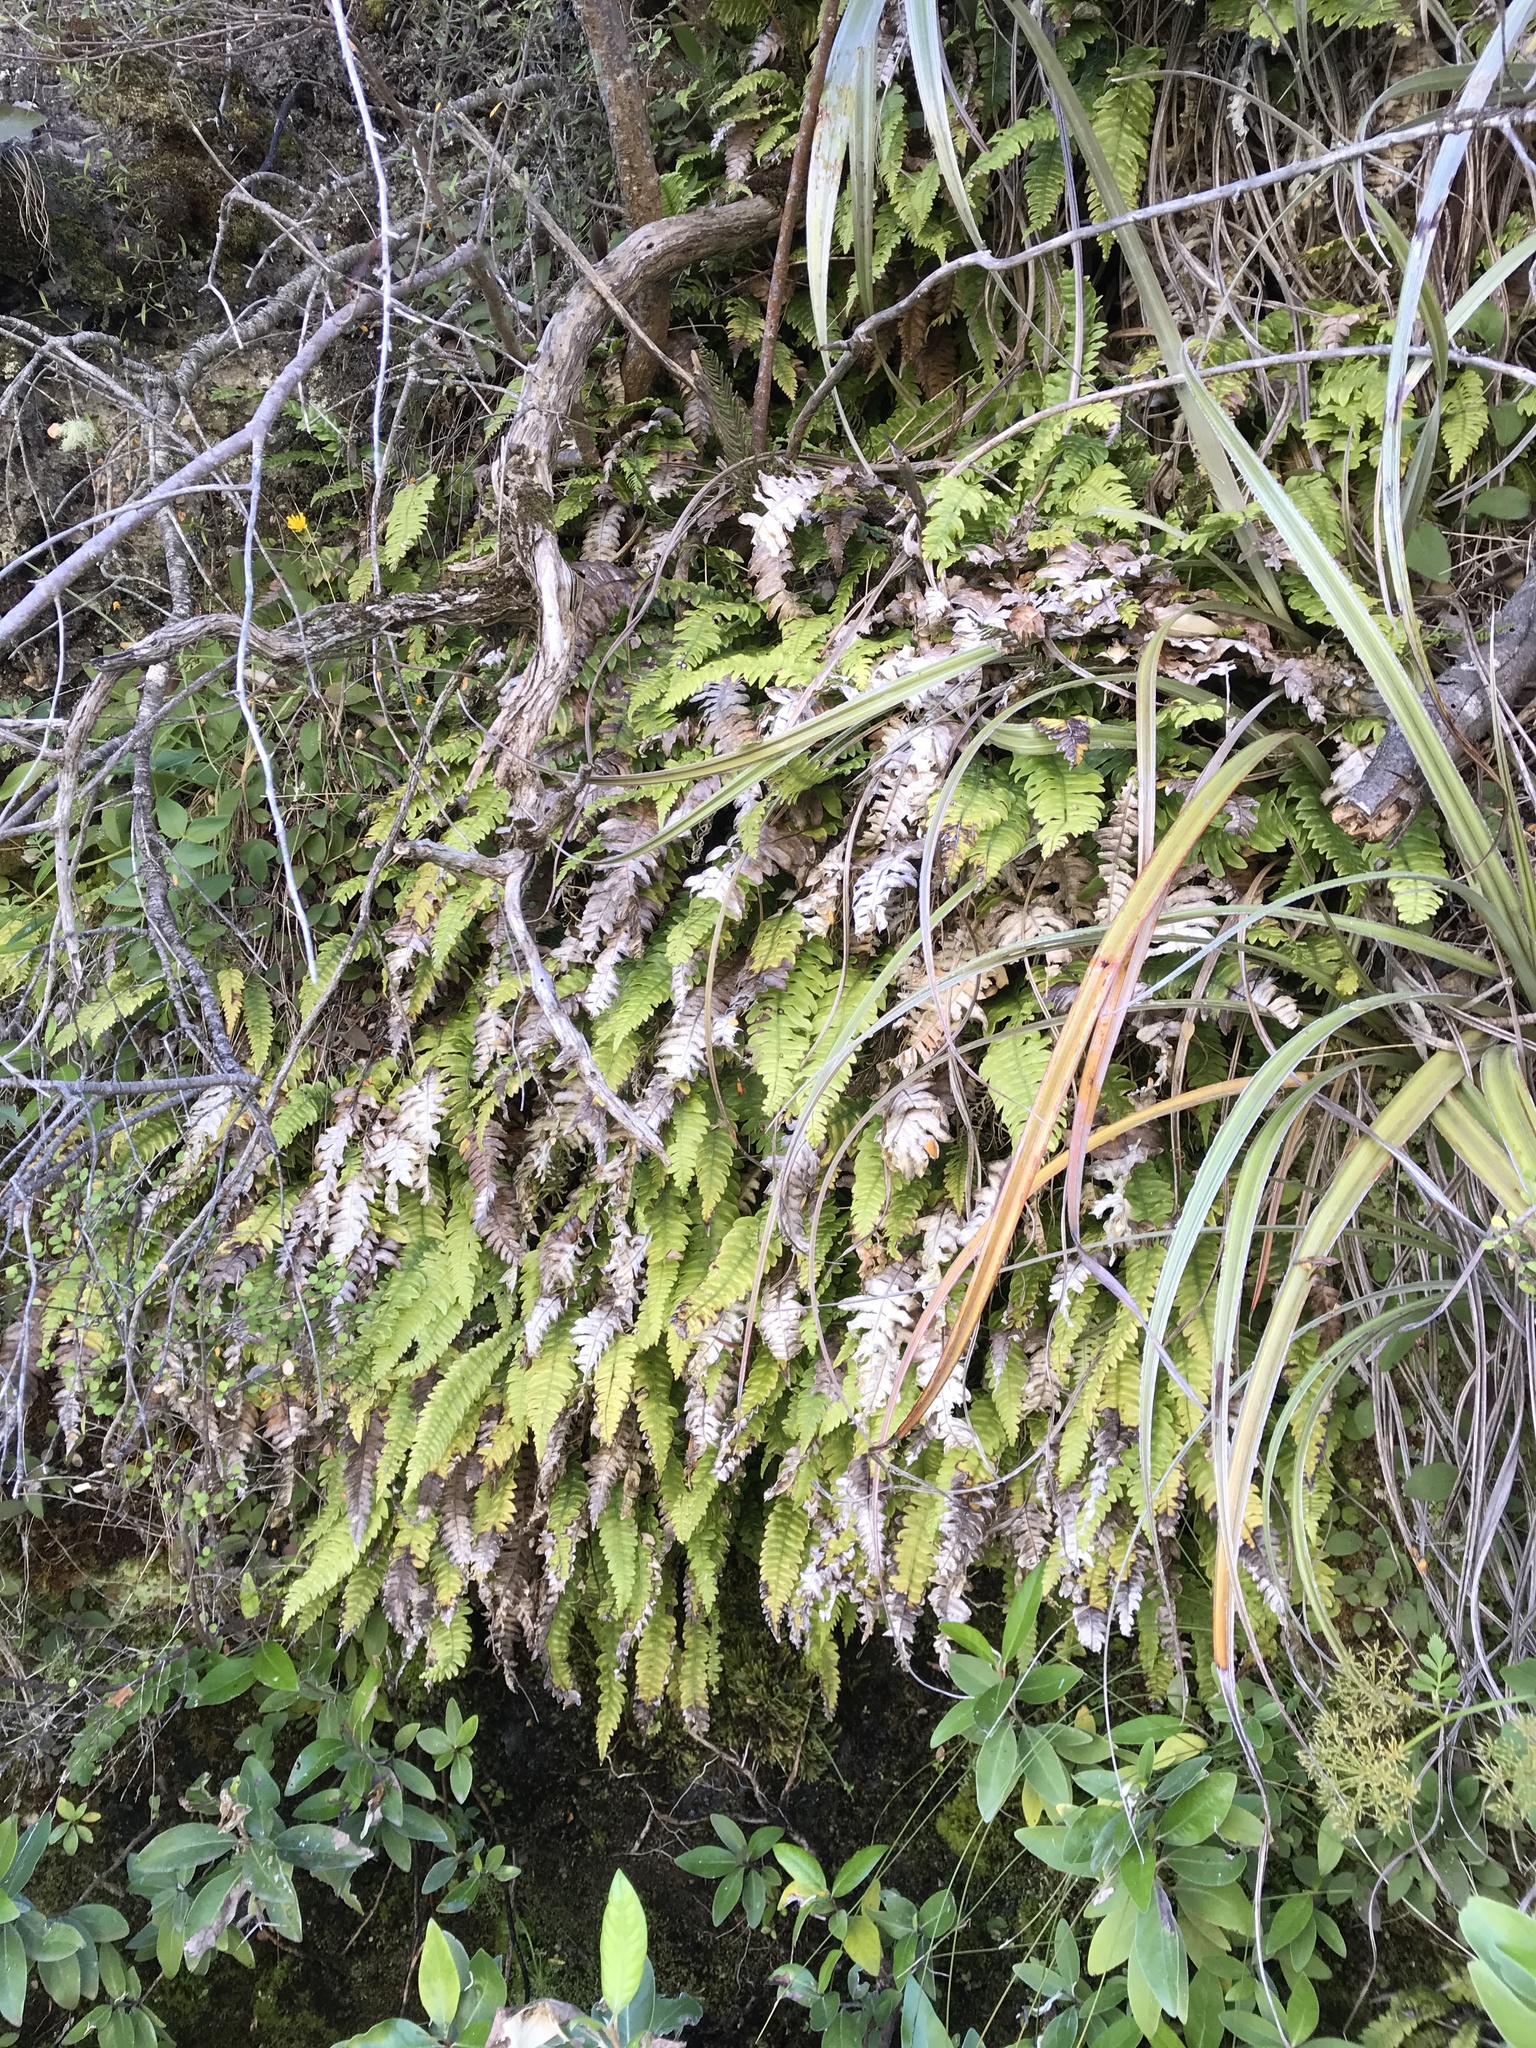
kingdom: Plantae
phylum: Tracheophyta
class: Polypodiopsida
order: Polypodiales
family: Blechnaceae
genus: Austroblechnum
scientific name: Austroblechnum lanceolatum
